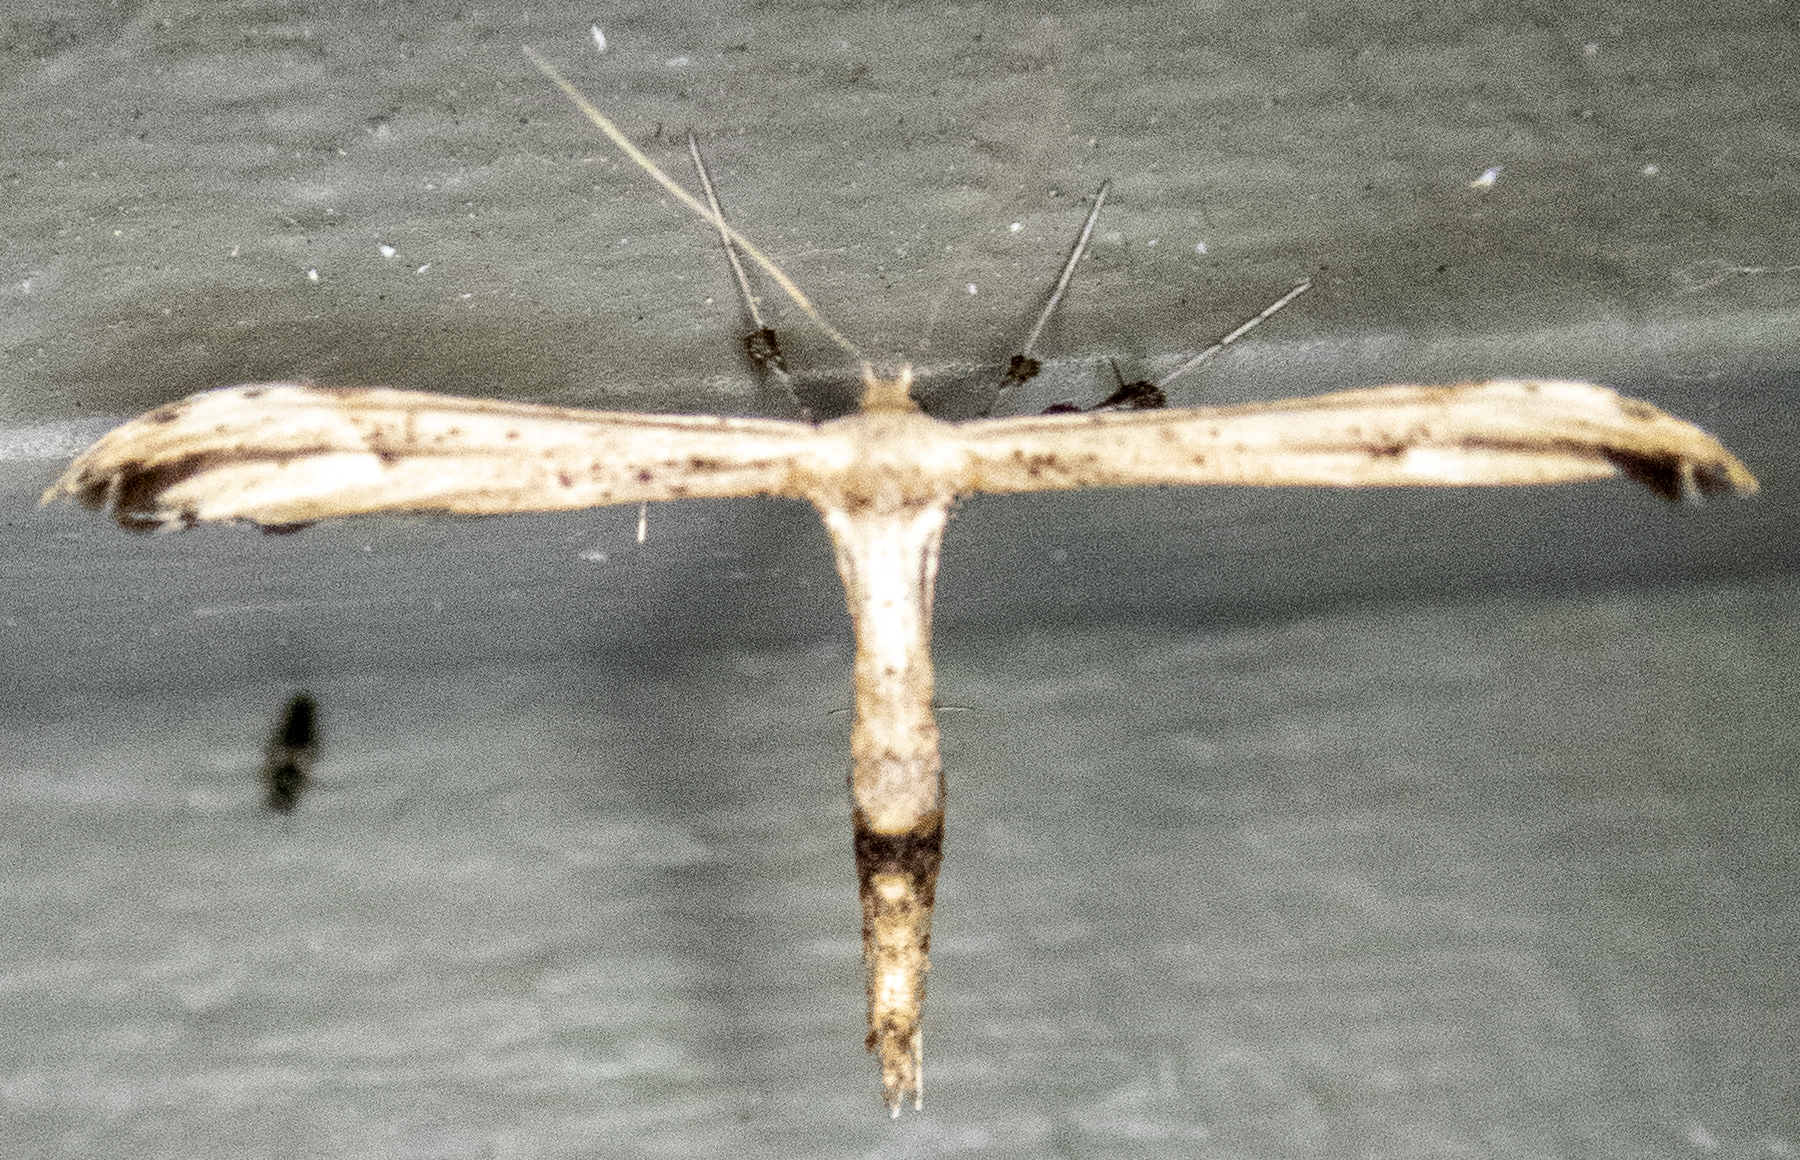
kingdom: Animalia
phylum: Arthropoda
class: Insecta
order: Lepidoptera
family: Pterophoridae
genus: Oidaematophorus
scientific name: Oidaematophorus eupatorii
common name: Eupatorium plume moth
